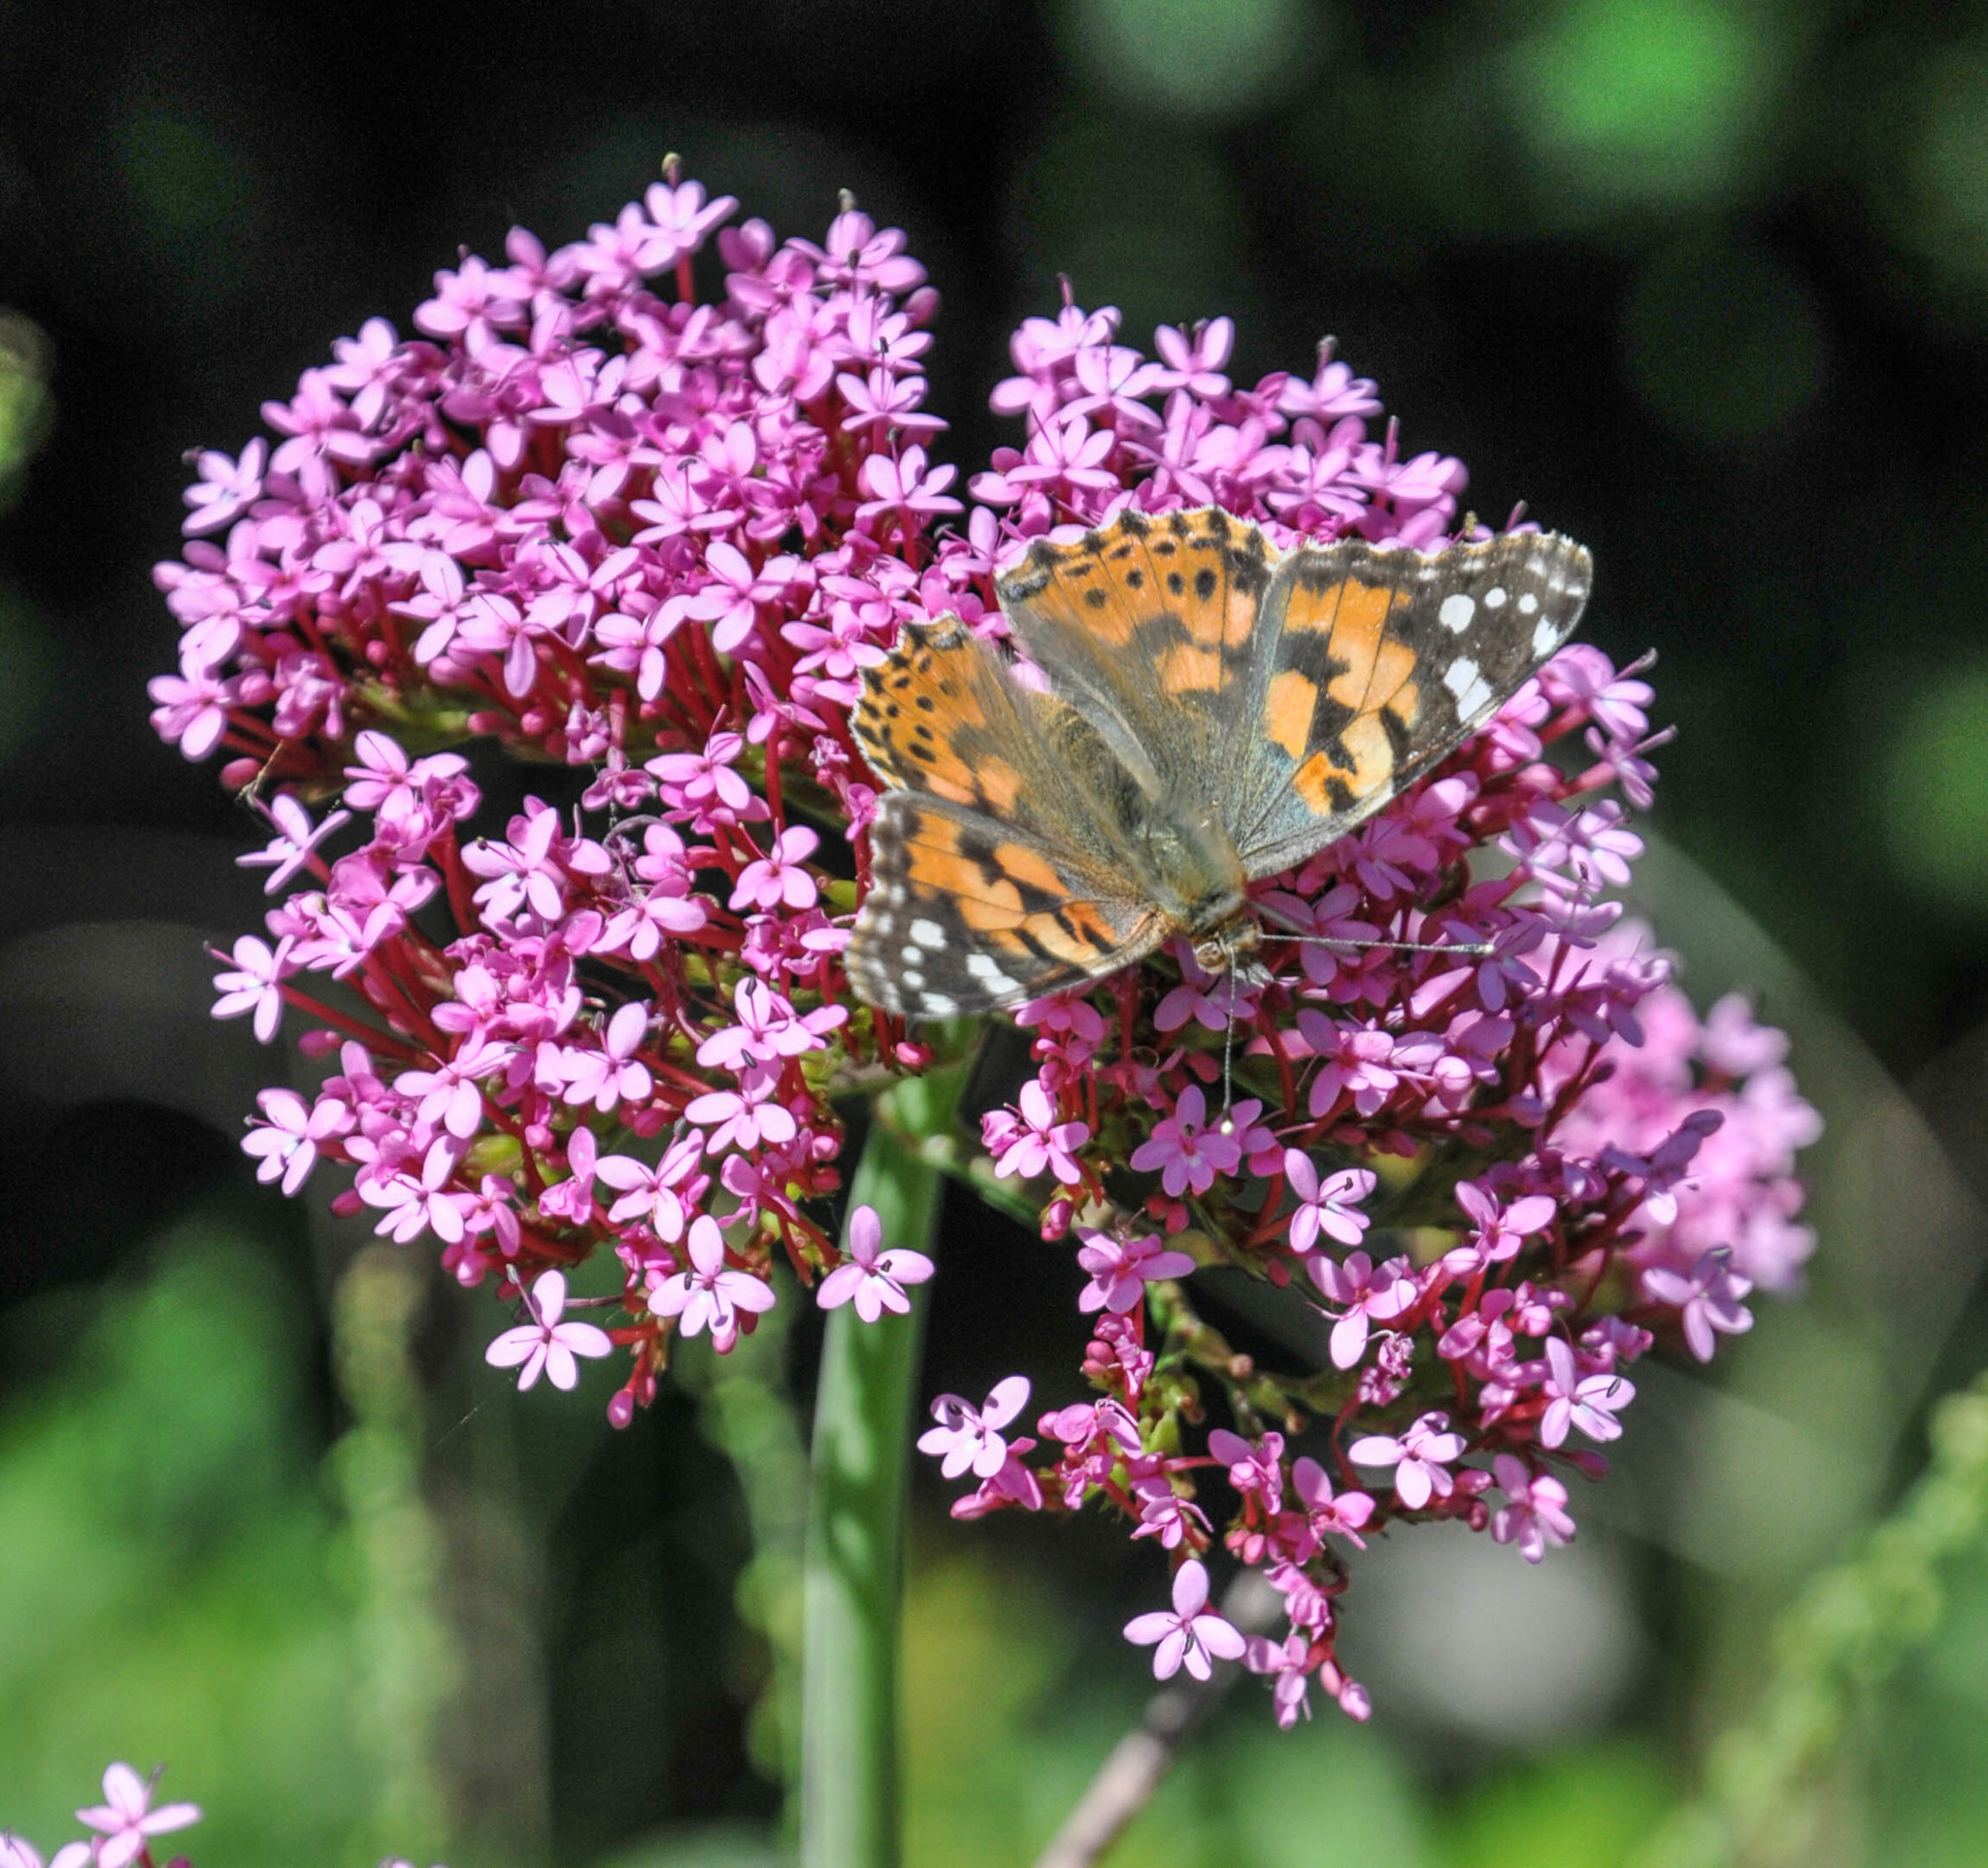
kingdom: Animalia
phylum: Arthropoda
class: Insecta
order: Lepidoptera
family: Nymphalidae
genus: Vanessa
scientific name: Vanessa cardui
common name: Painted lady
